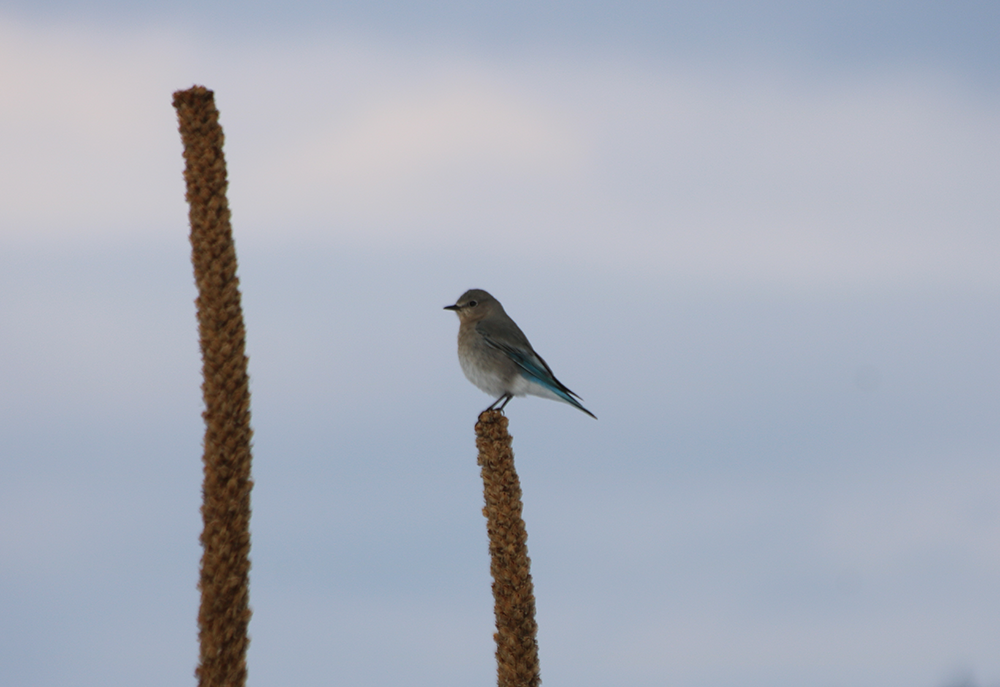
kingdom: Animalia
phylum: Chordata
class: Aves
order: Passeriformes
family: Turdidae
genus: Sialia
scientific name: Sialia currucoides
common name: Mountain bluebird
